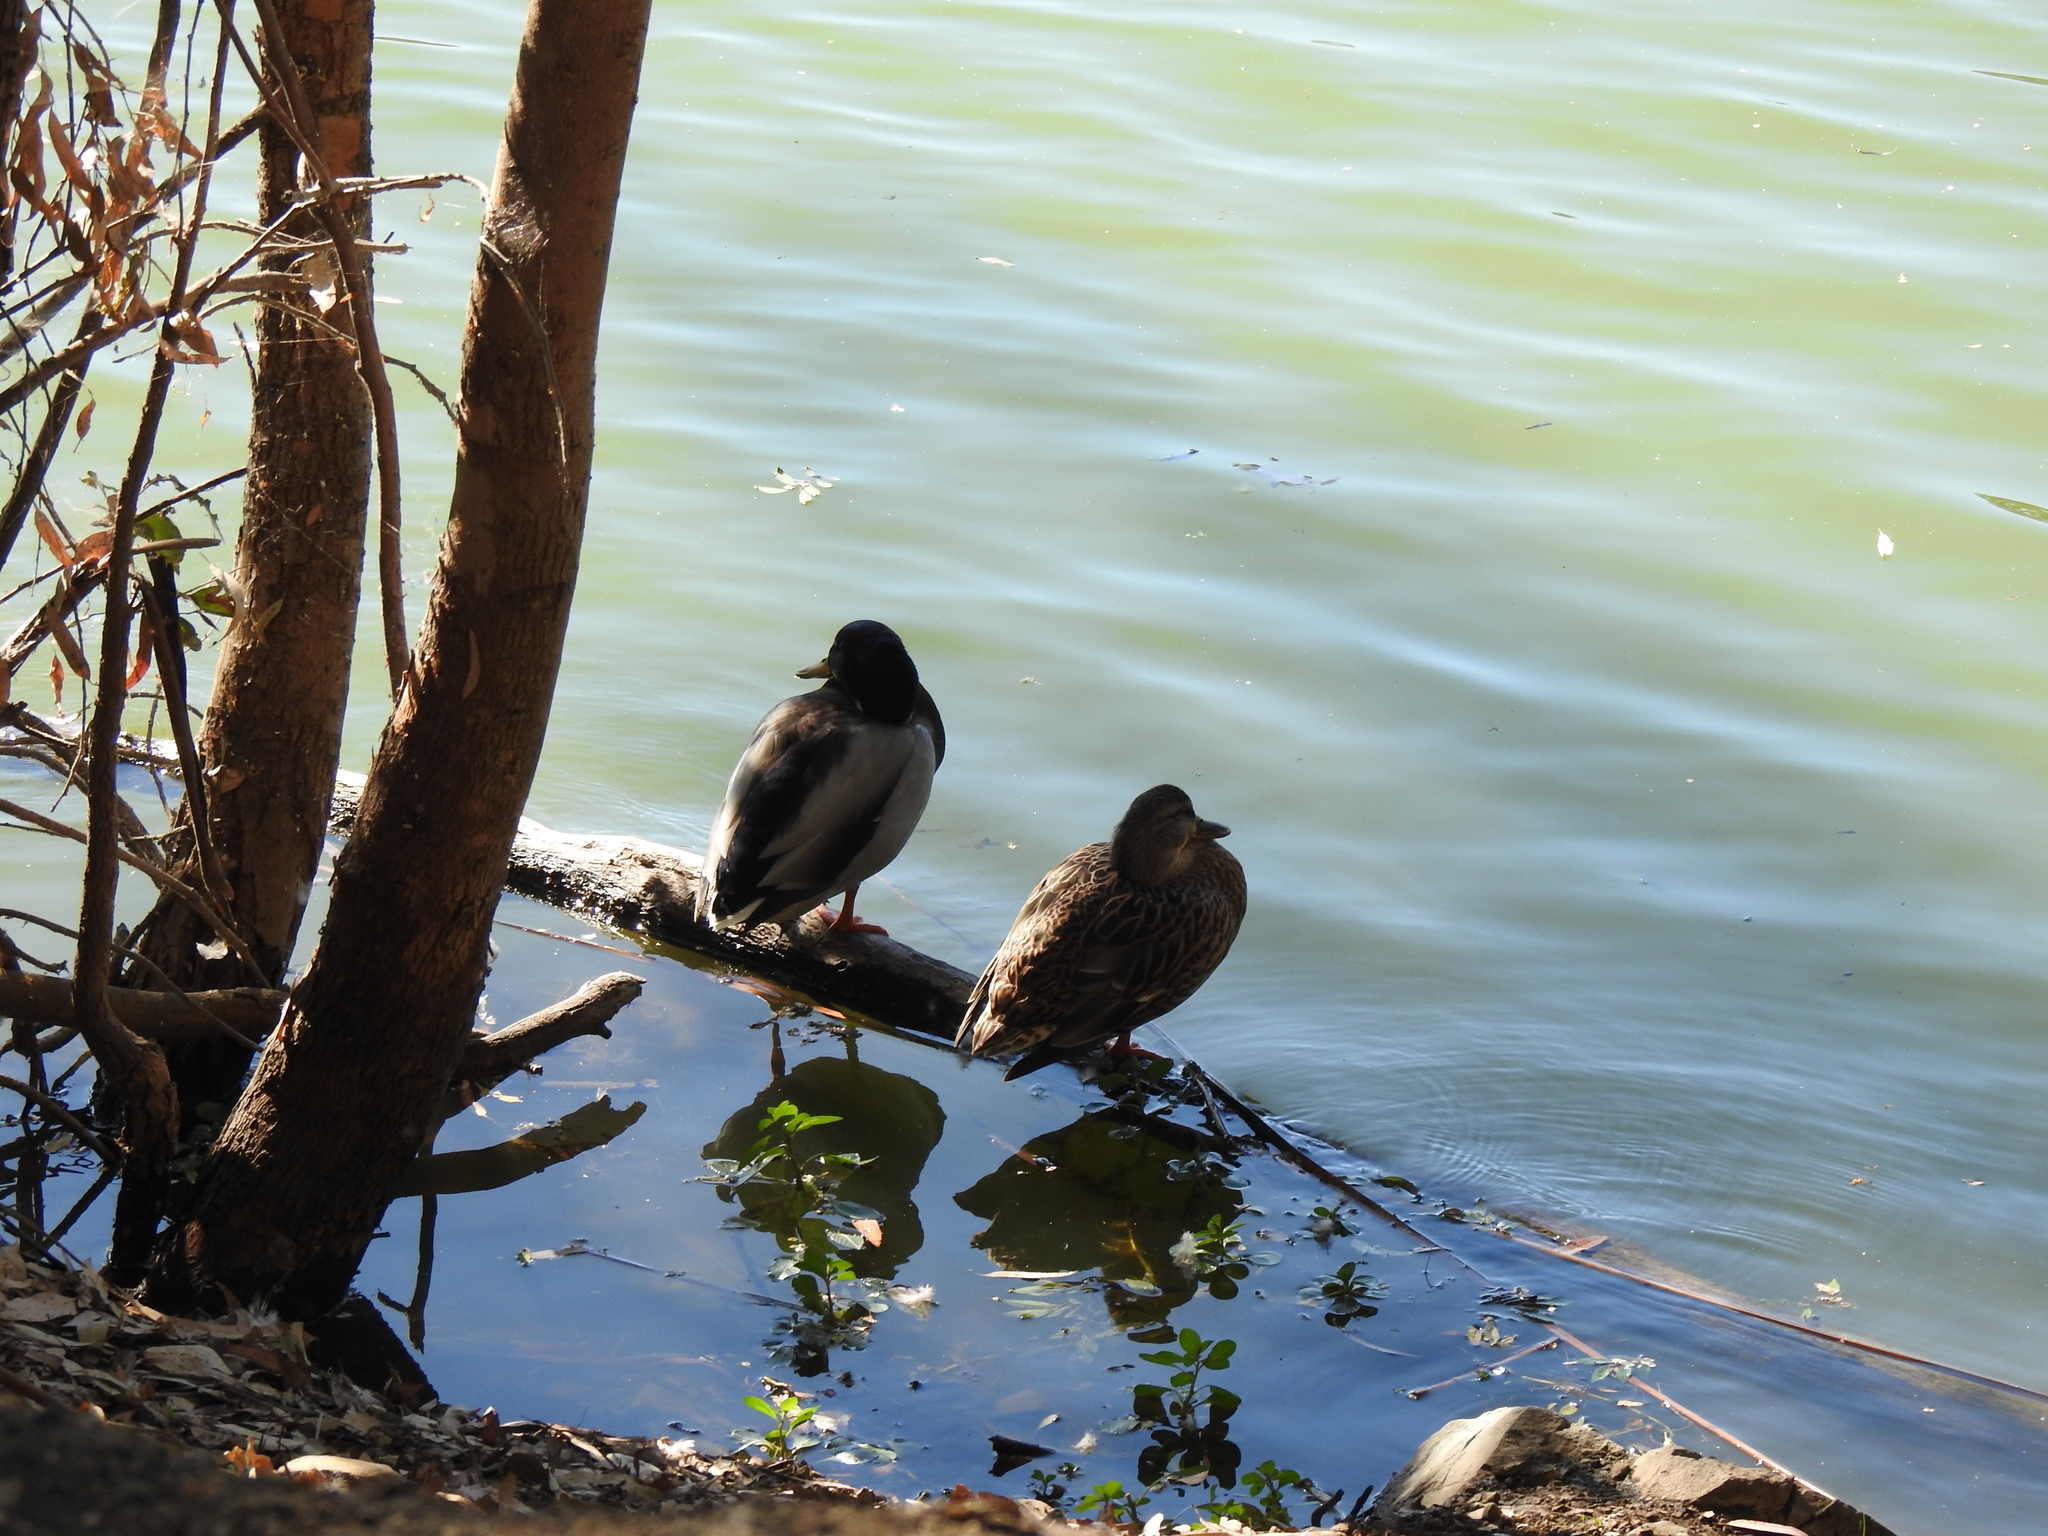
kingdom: Animalia
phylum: Chordata
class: Aves
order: Anseriformes
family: Anatidae
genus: Anas
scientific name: Anas platyrhynchos
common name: Mallard
